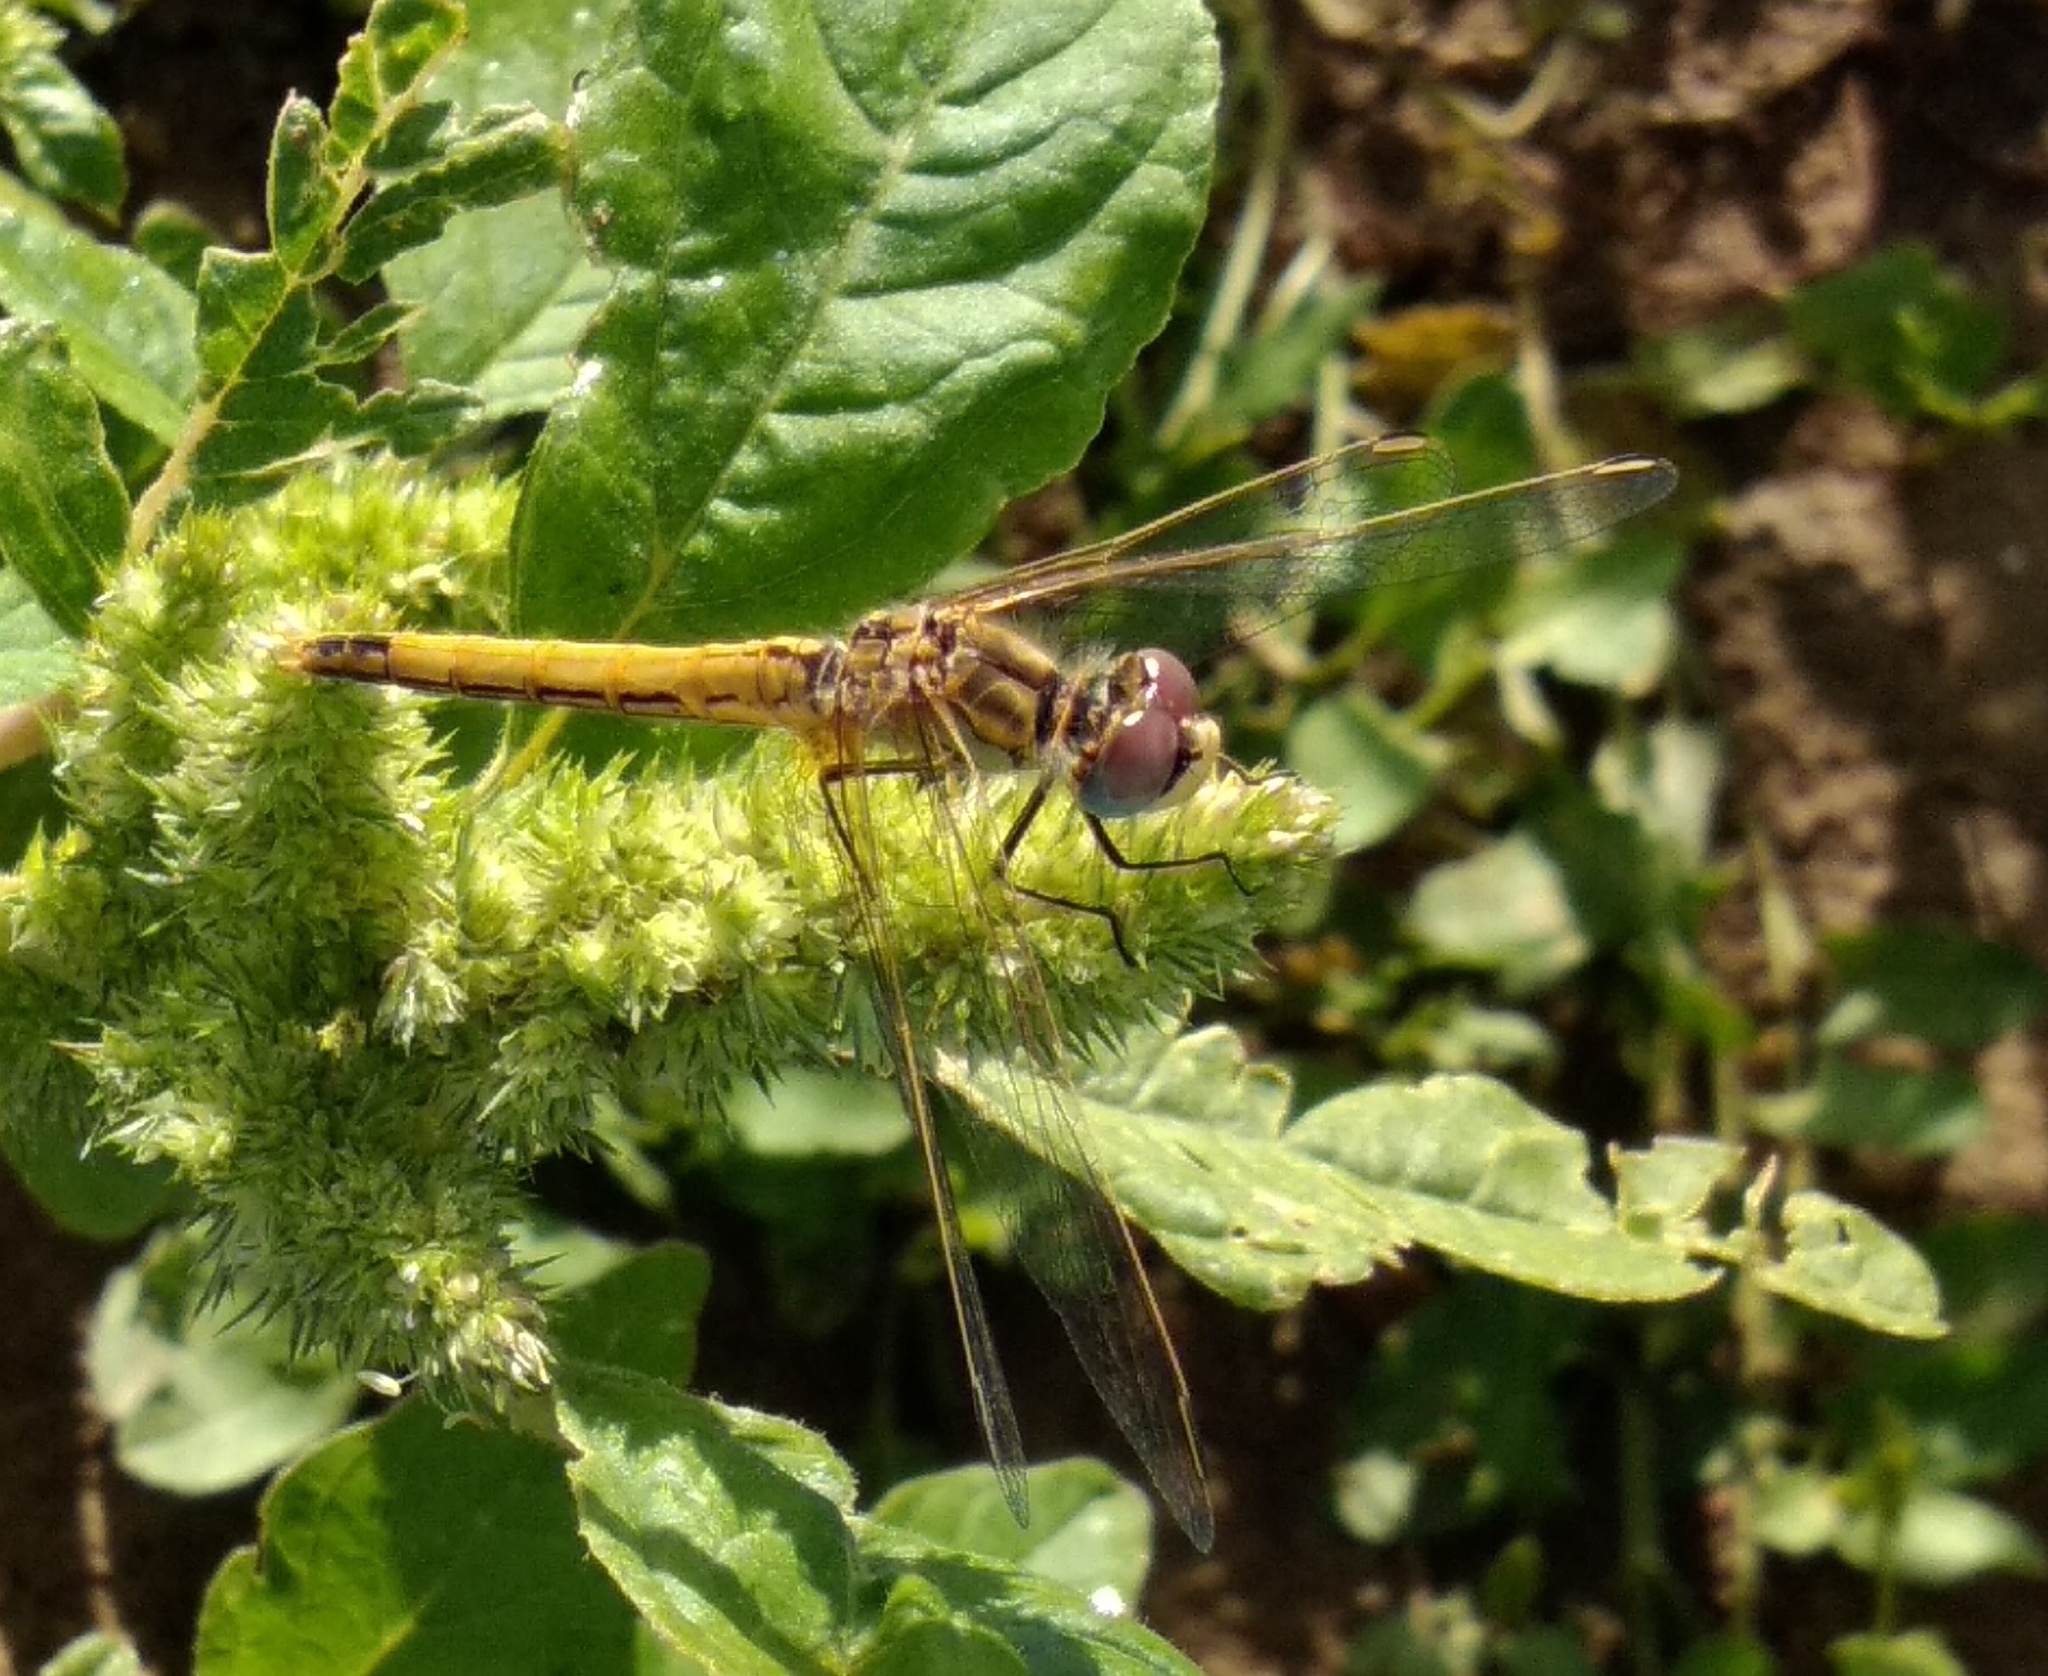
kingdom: Animalia
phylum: Arthropoda
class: Insecta
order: Odonata
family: Libellulidae
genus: Sympetrum
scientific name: Sympetrum fonscolombii
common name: Red-veined darter
